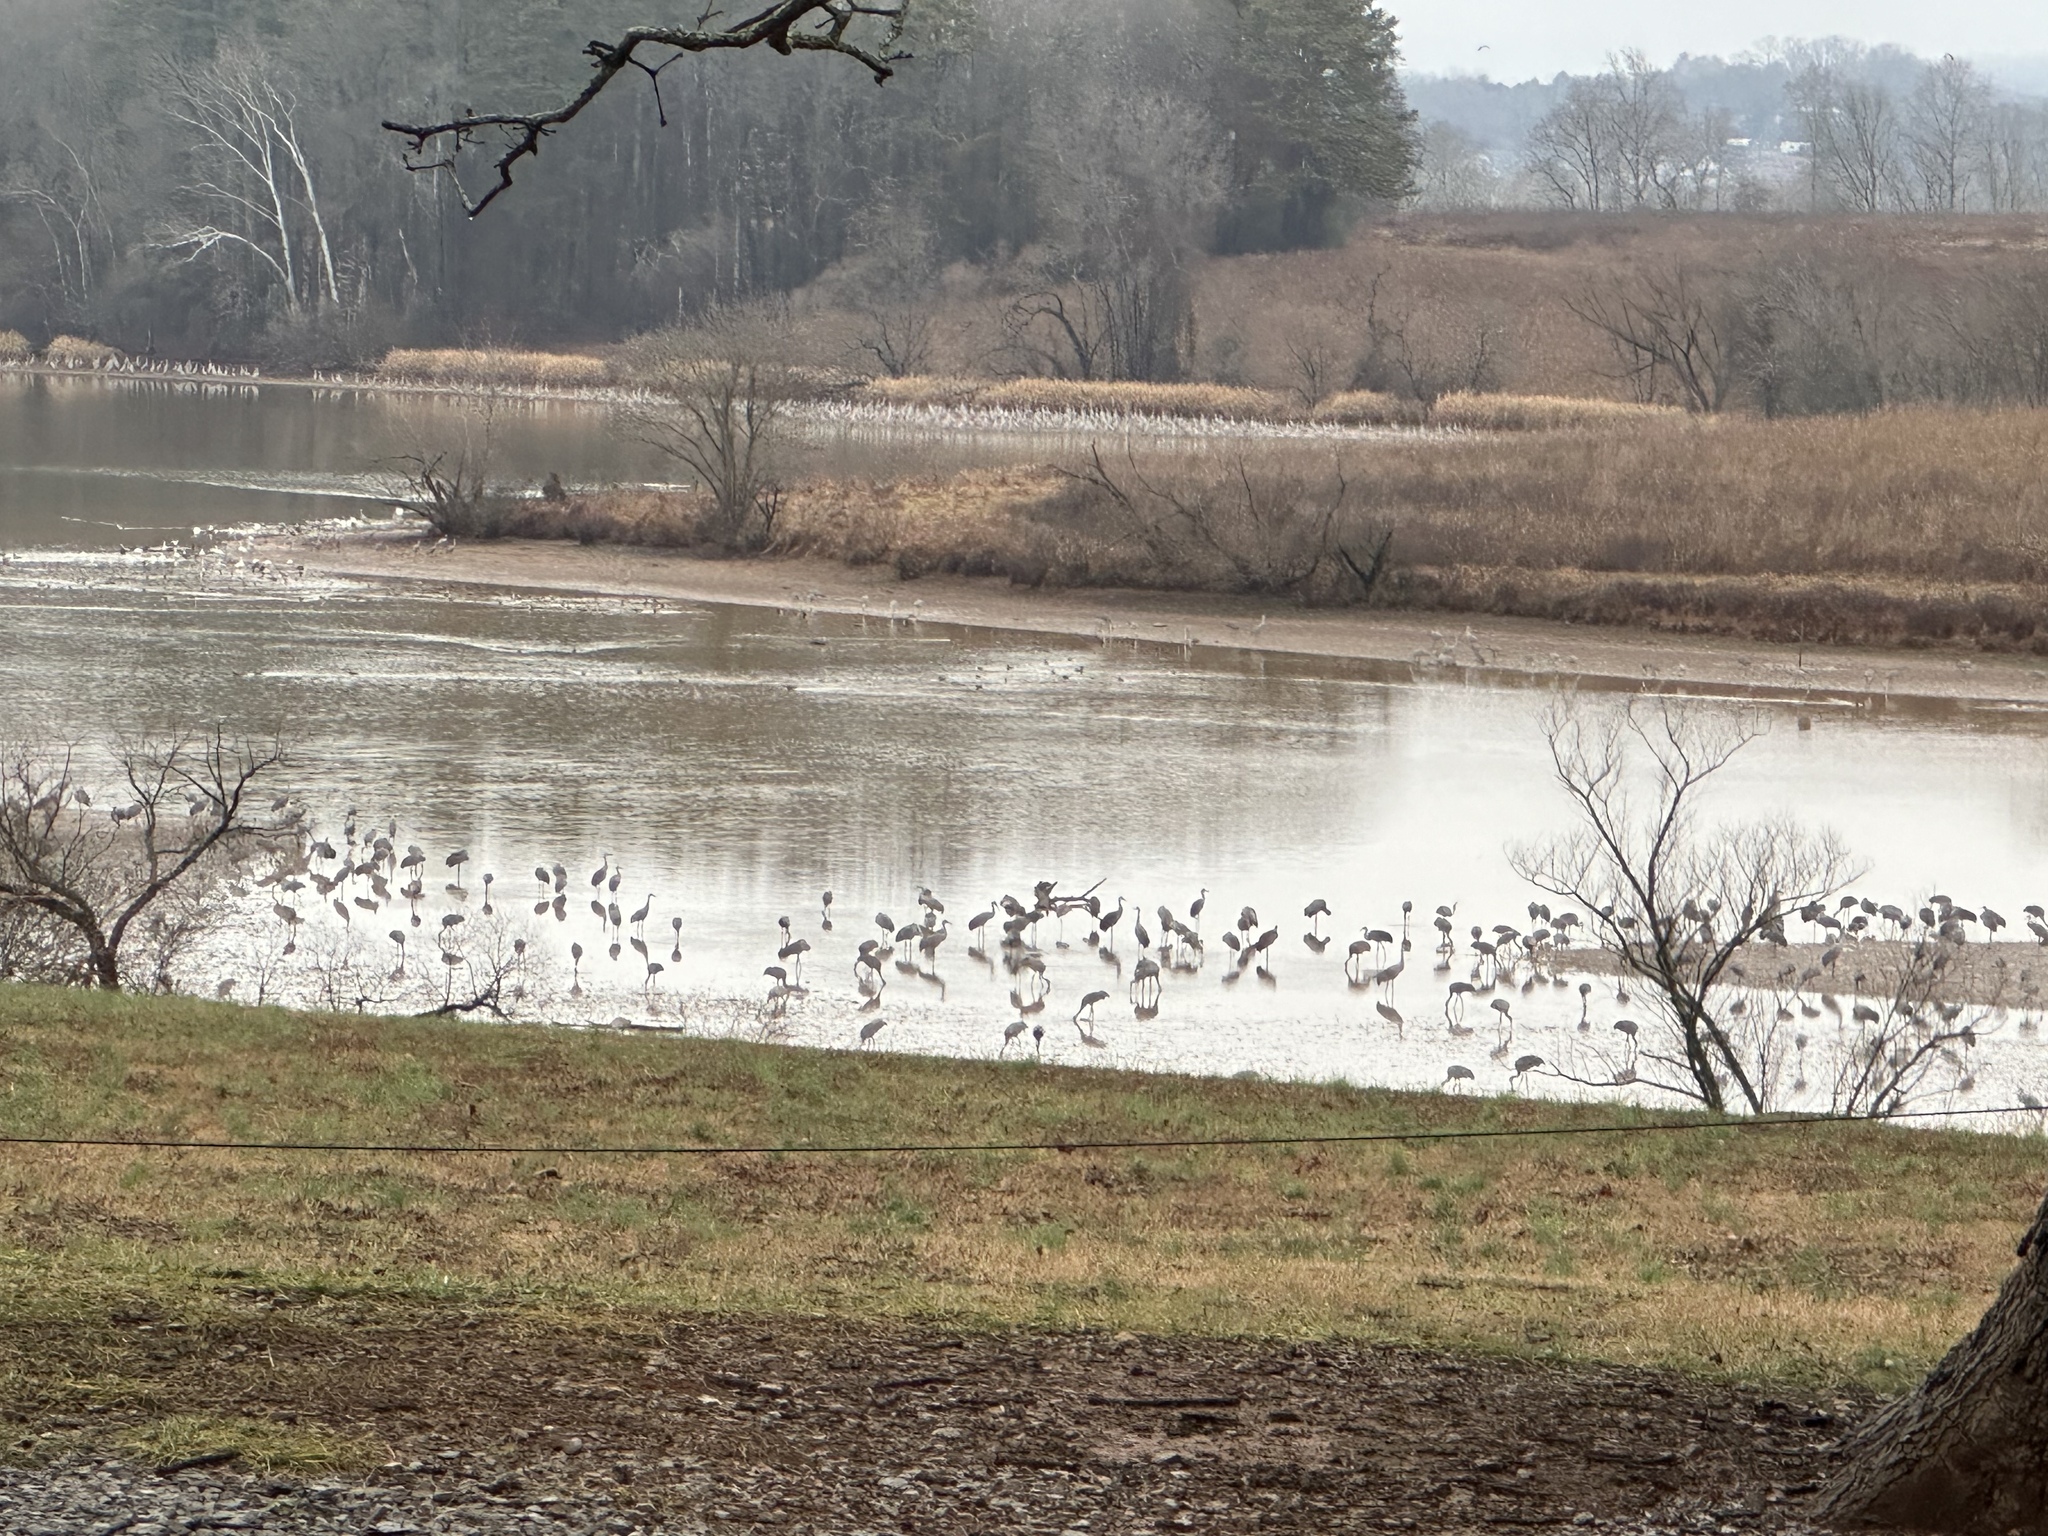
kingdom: Animalia
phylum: Chordata
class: Aves
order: Gruiformes
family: Gruidae
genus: Grus
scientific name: Grus canadensis
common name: Sandhill crane
